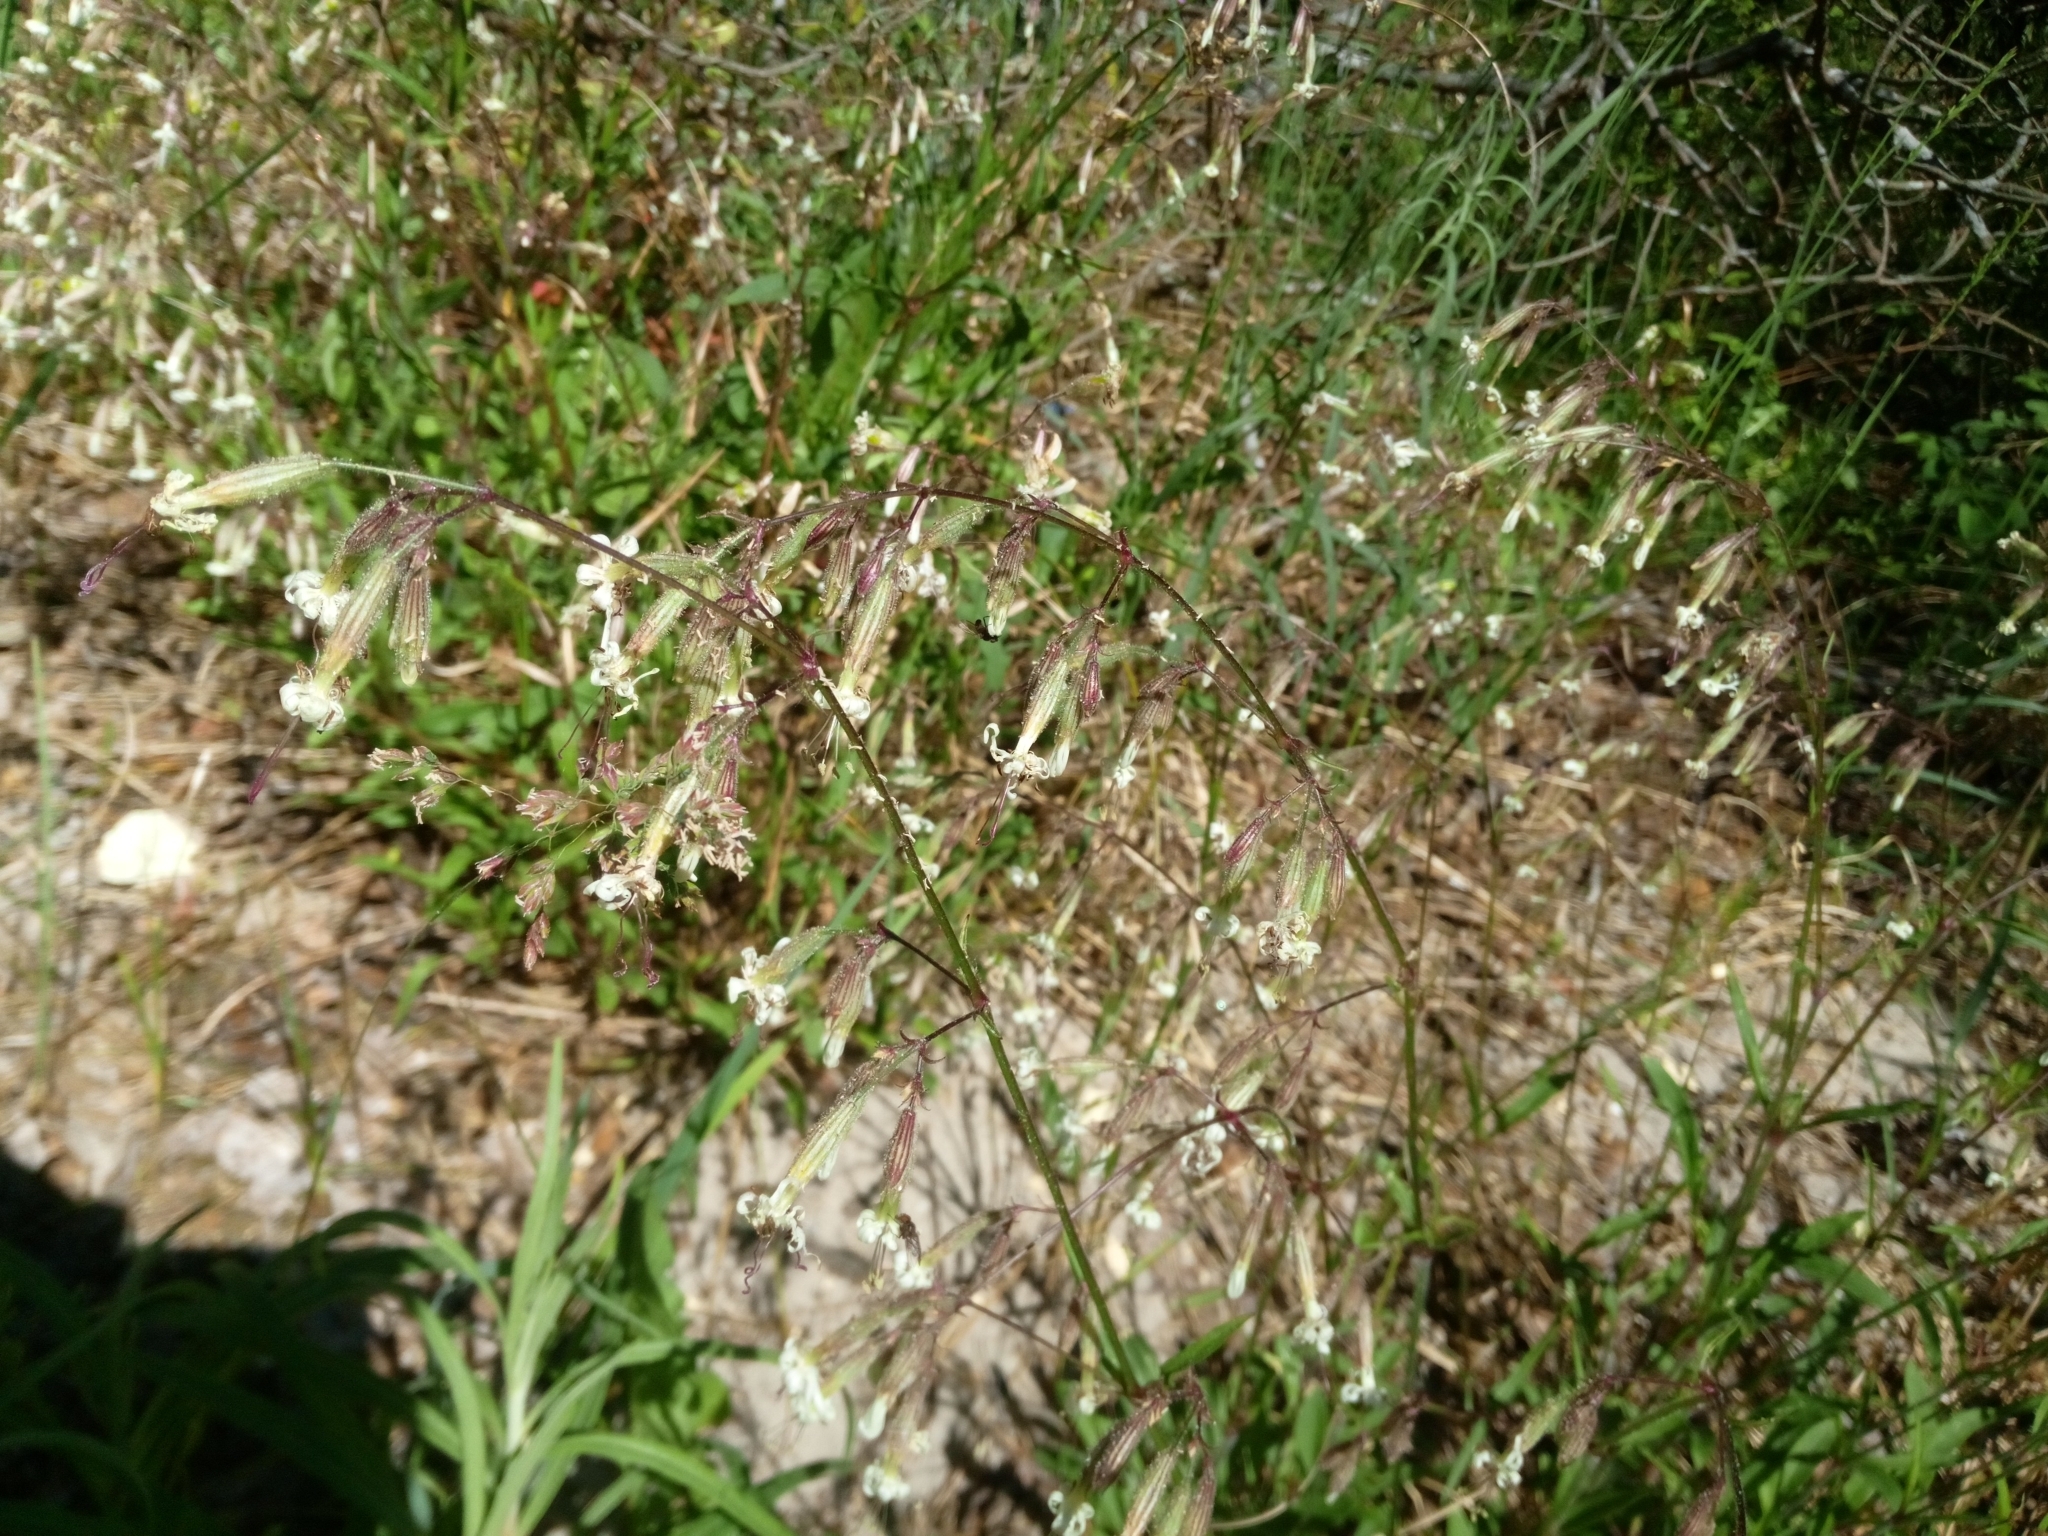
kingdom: Plantae
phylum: Tracheophyta
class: Magnoliopsida
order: Caryophyllales
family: Caryophyllaceae
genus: Silene
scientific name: Silene nutans
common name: Nottingham catchfly
